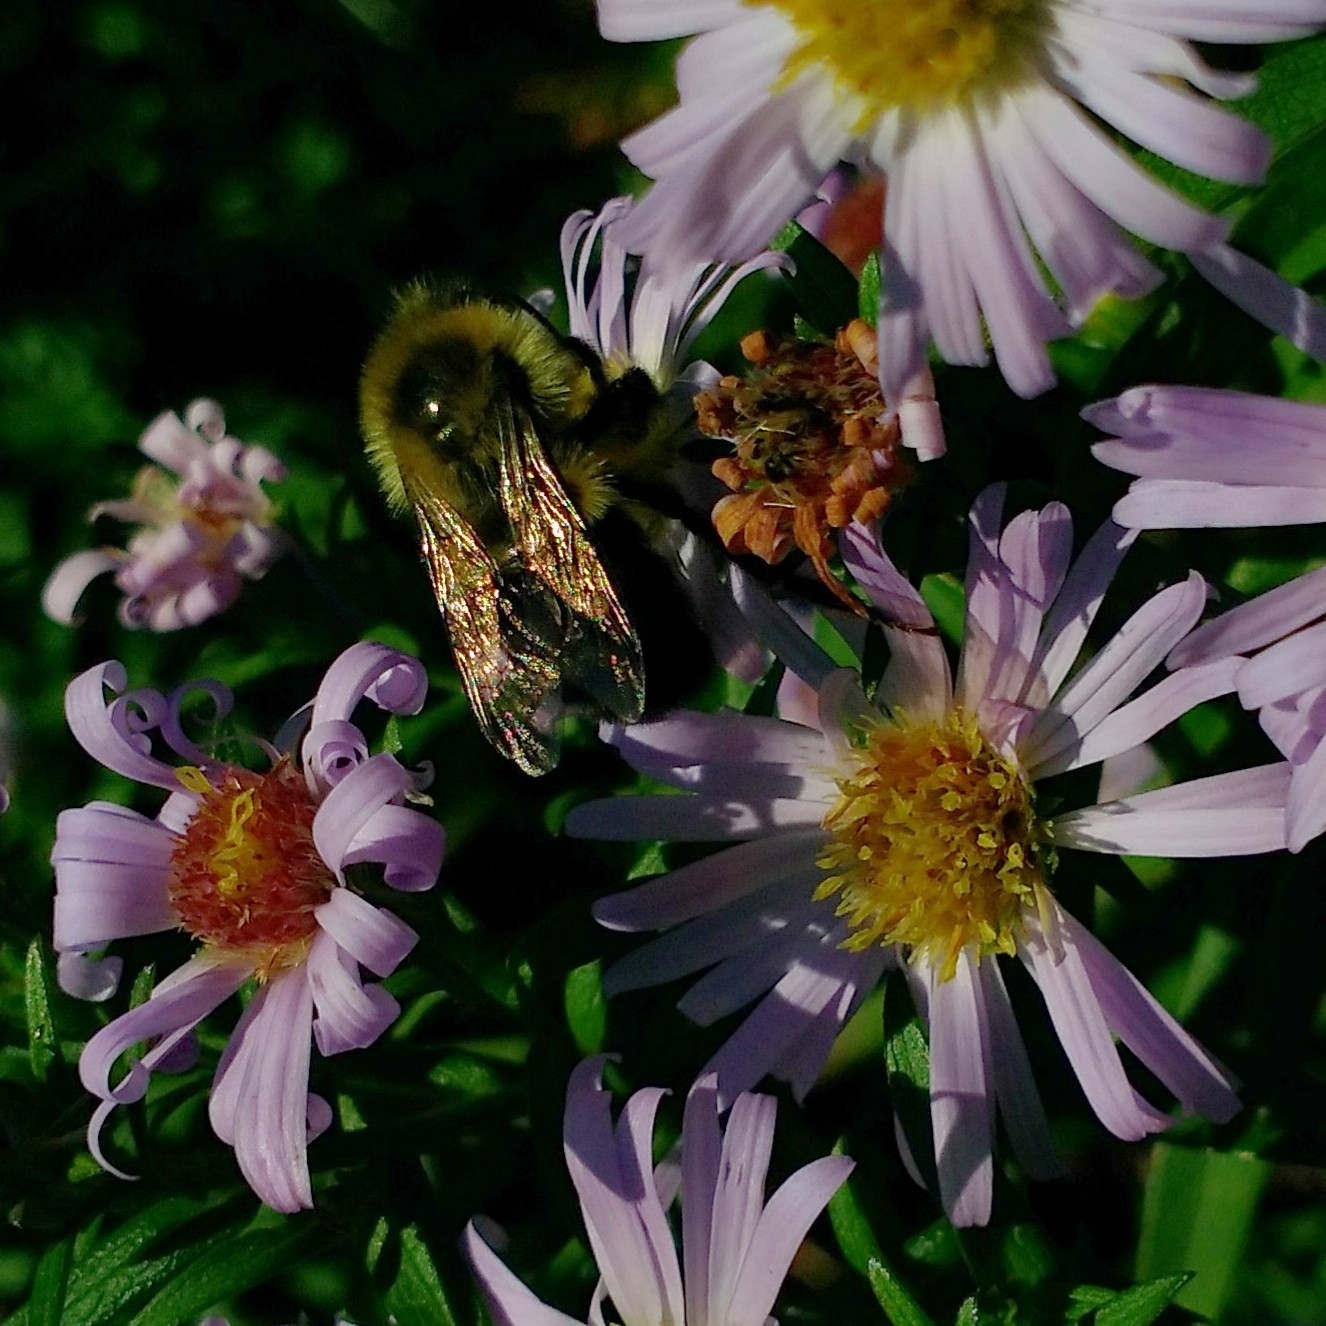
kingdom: Animalia
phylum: Arthropoda
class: Insecta
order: Hymenoptera
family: Apidae
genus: Bombus
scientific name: Bombus impatiens
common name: Common eastern bumble bee
